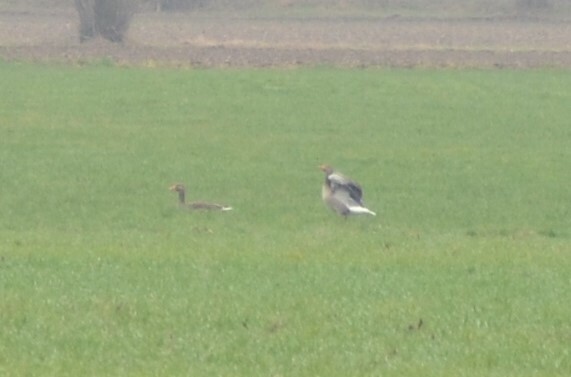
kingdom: Animalia
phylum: Chordata
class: Aves
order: Anseriformes
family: Anatidae
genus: Anser
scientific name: Anser anser
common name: Greylag goose
